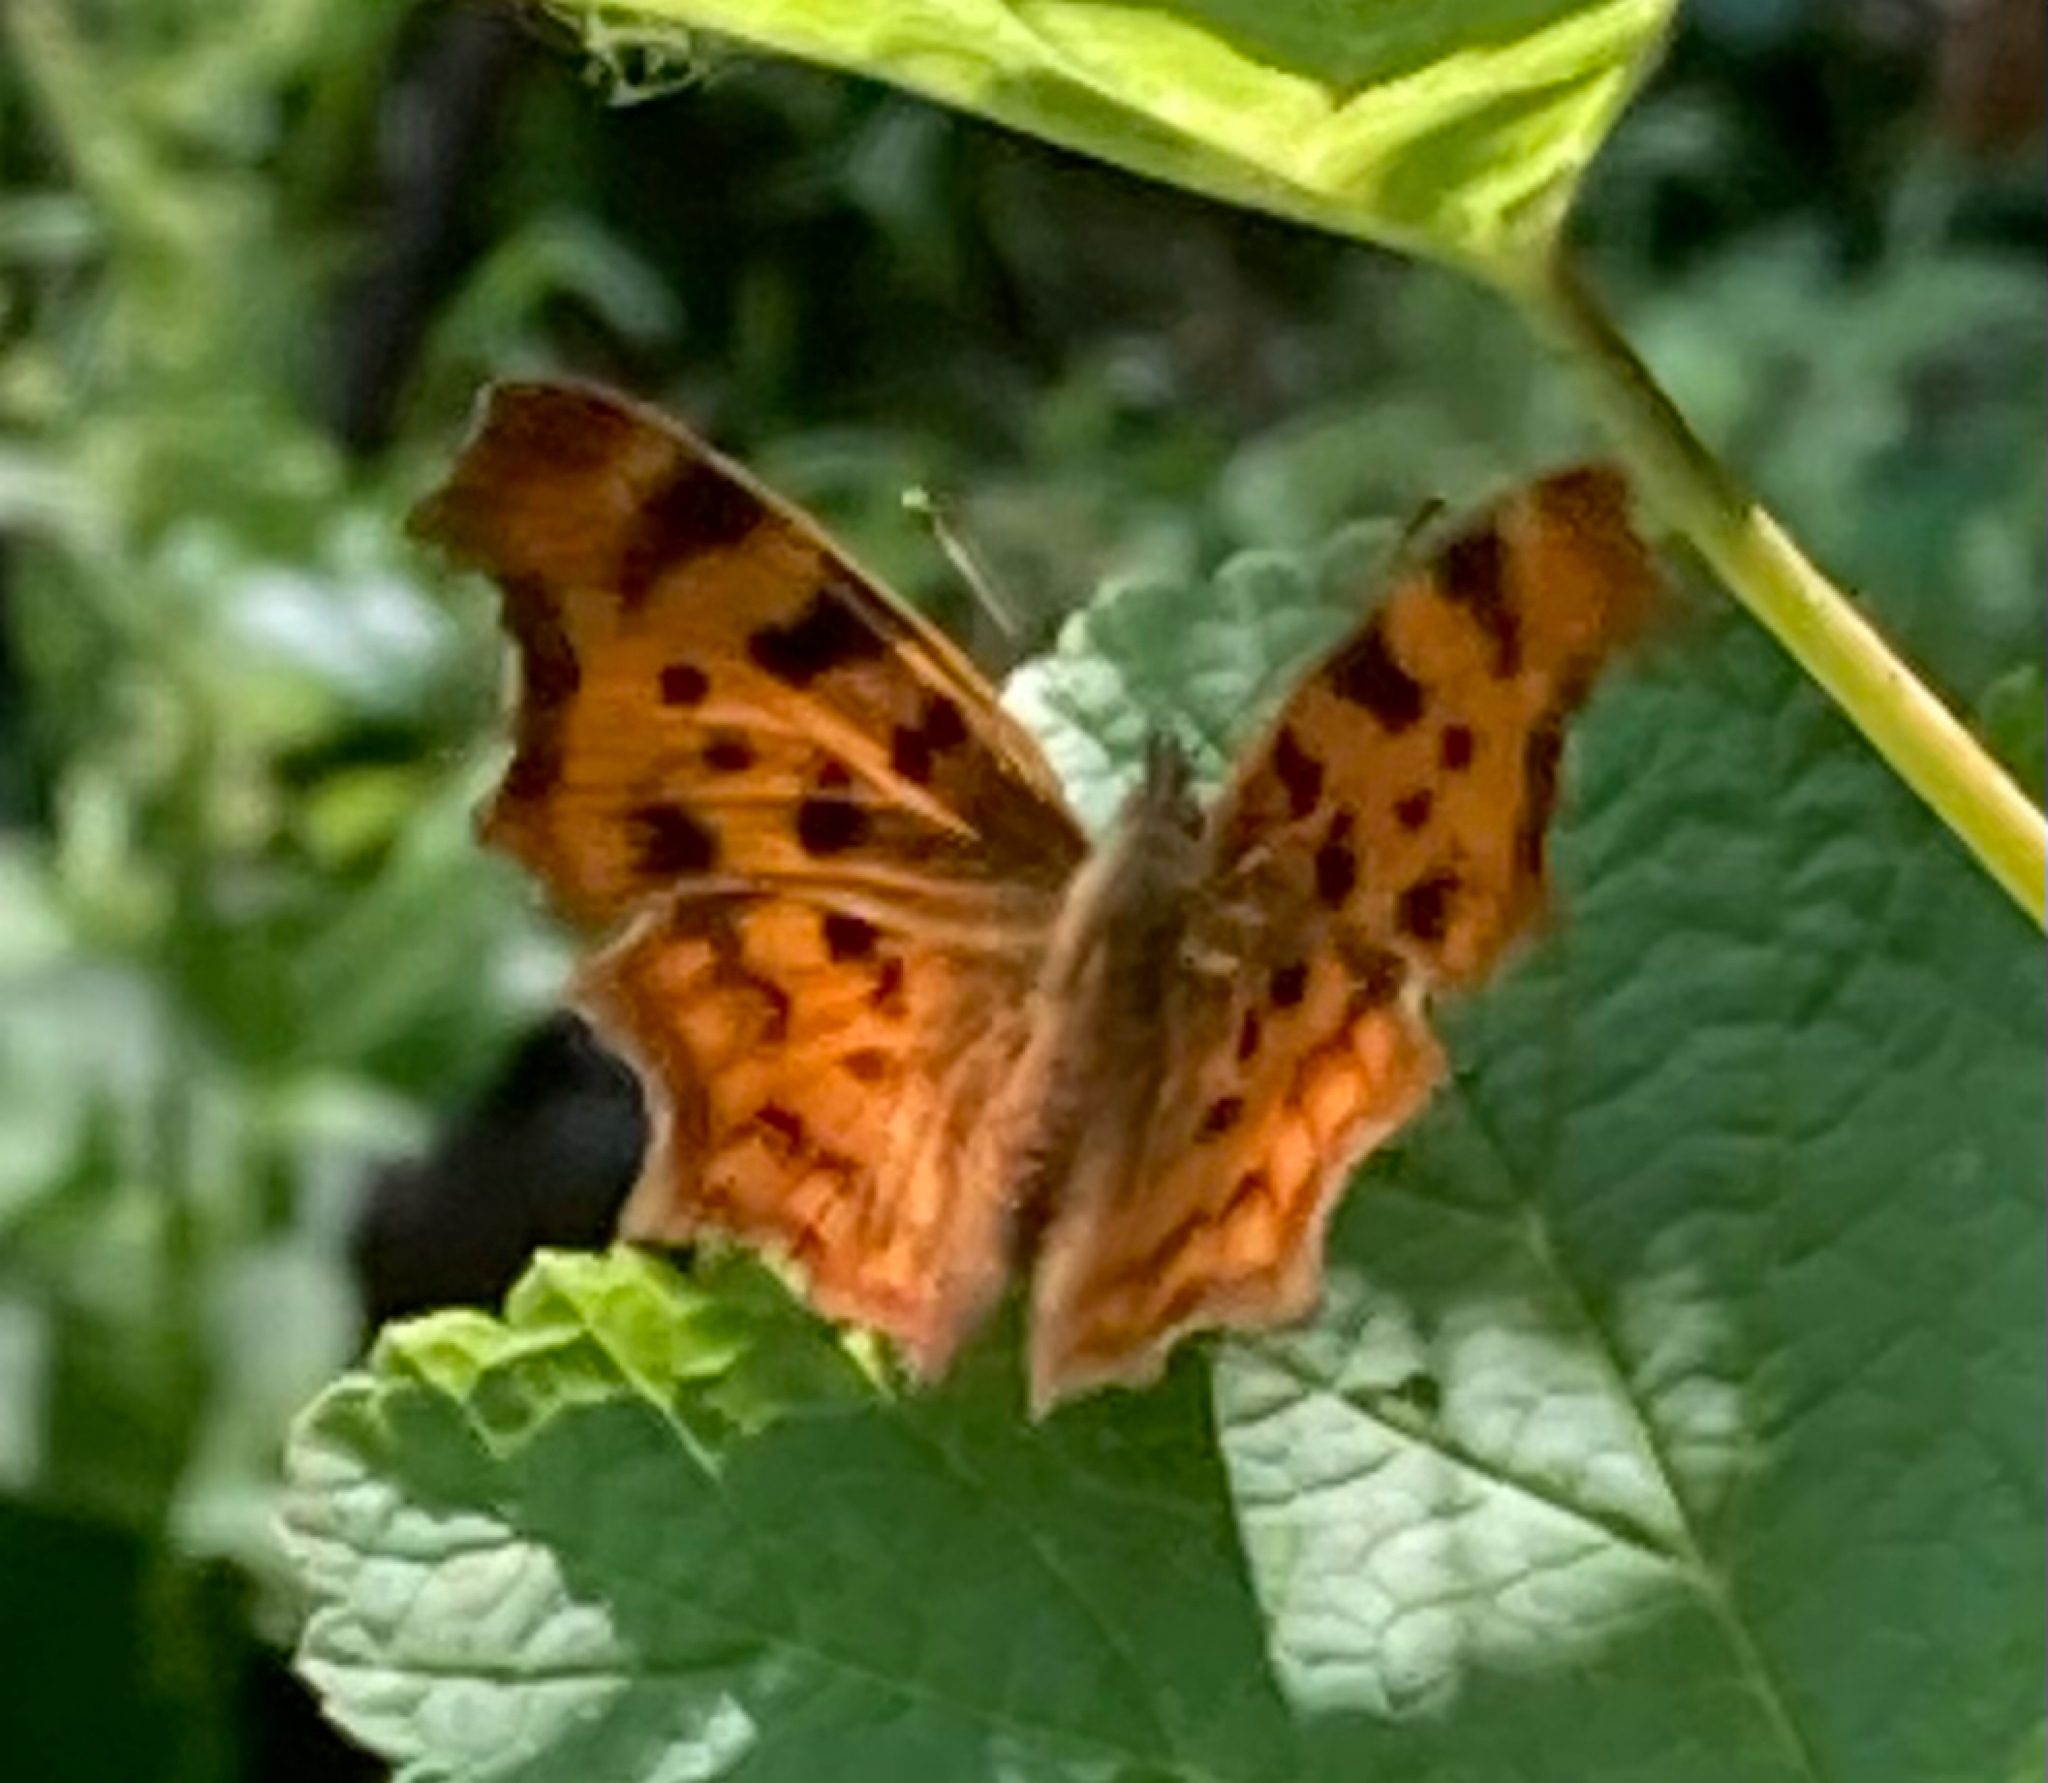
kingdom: Animalia
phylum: Arthropoda
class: Insecta
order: Lepidoptera
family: Nymphalidae
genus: Polygonia
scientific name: Polygonia c-album
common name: Comma
